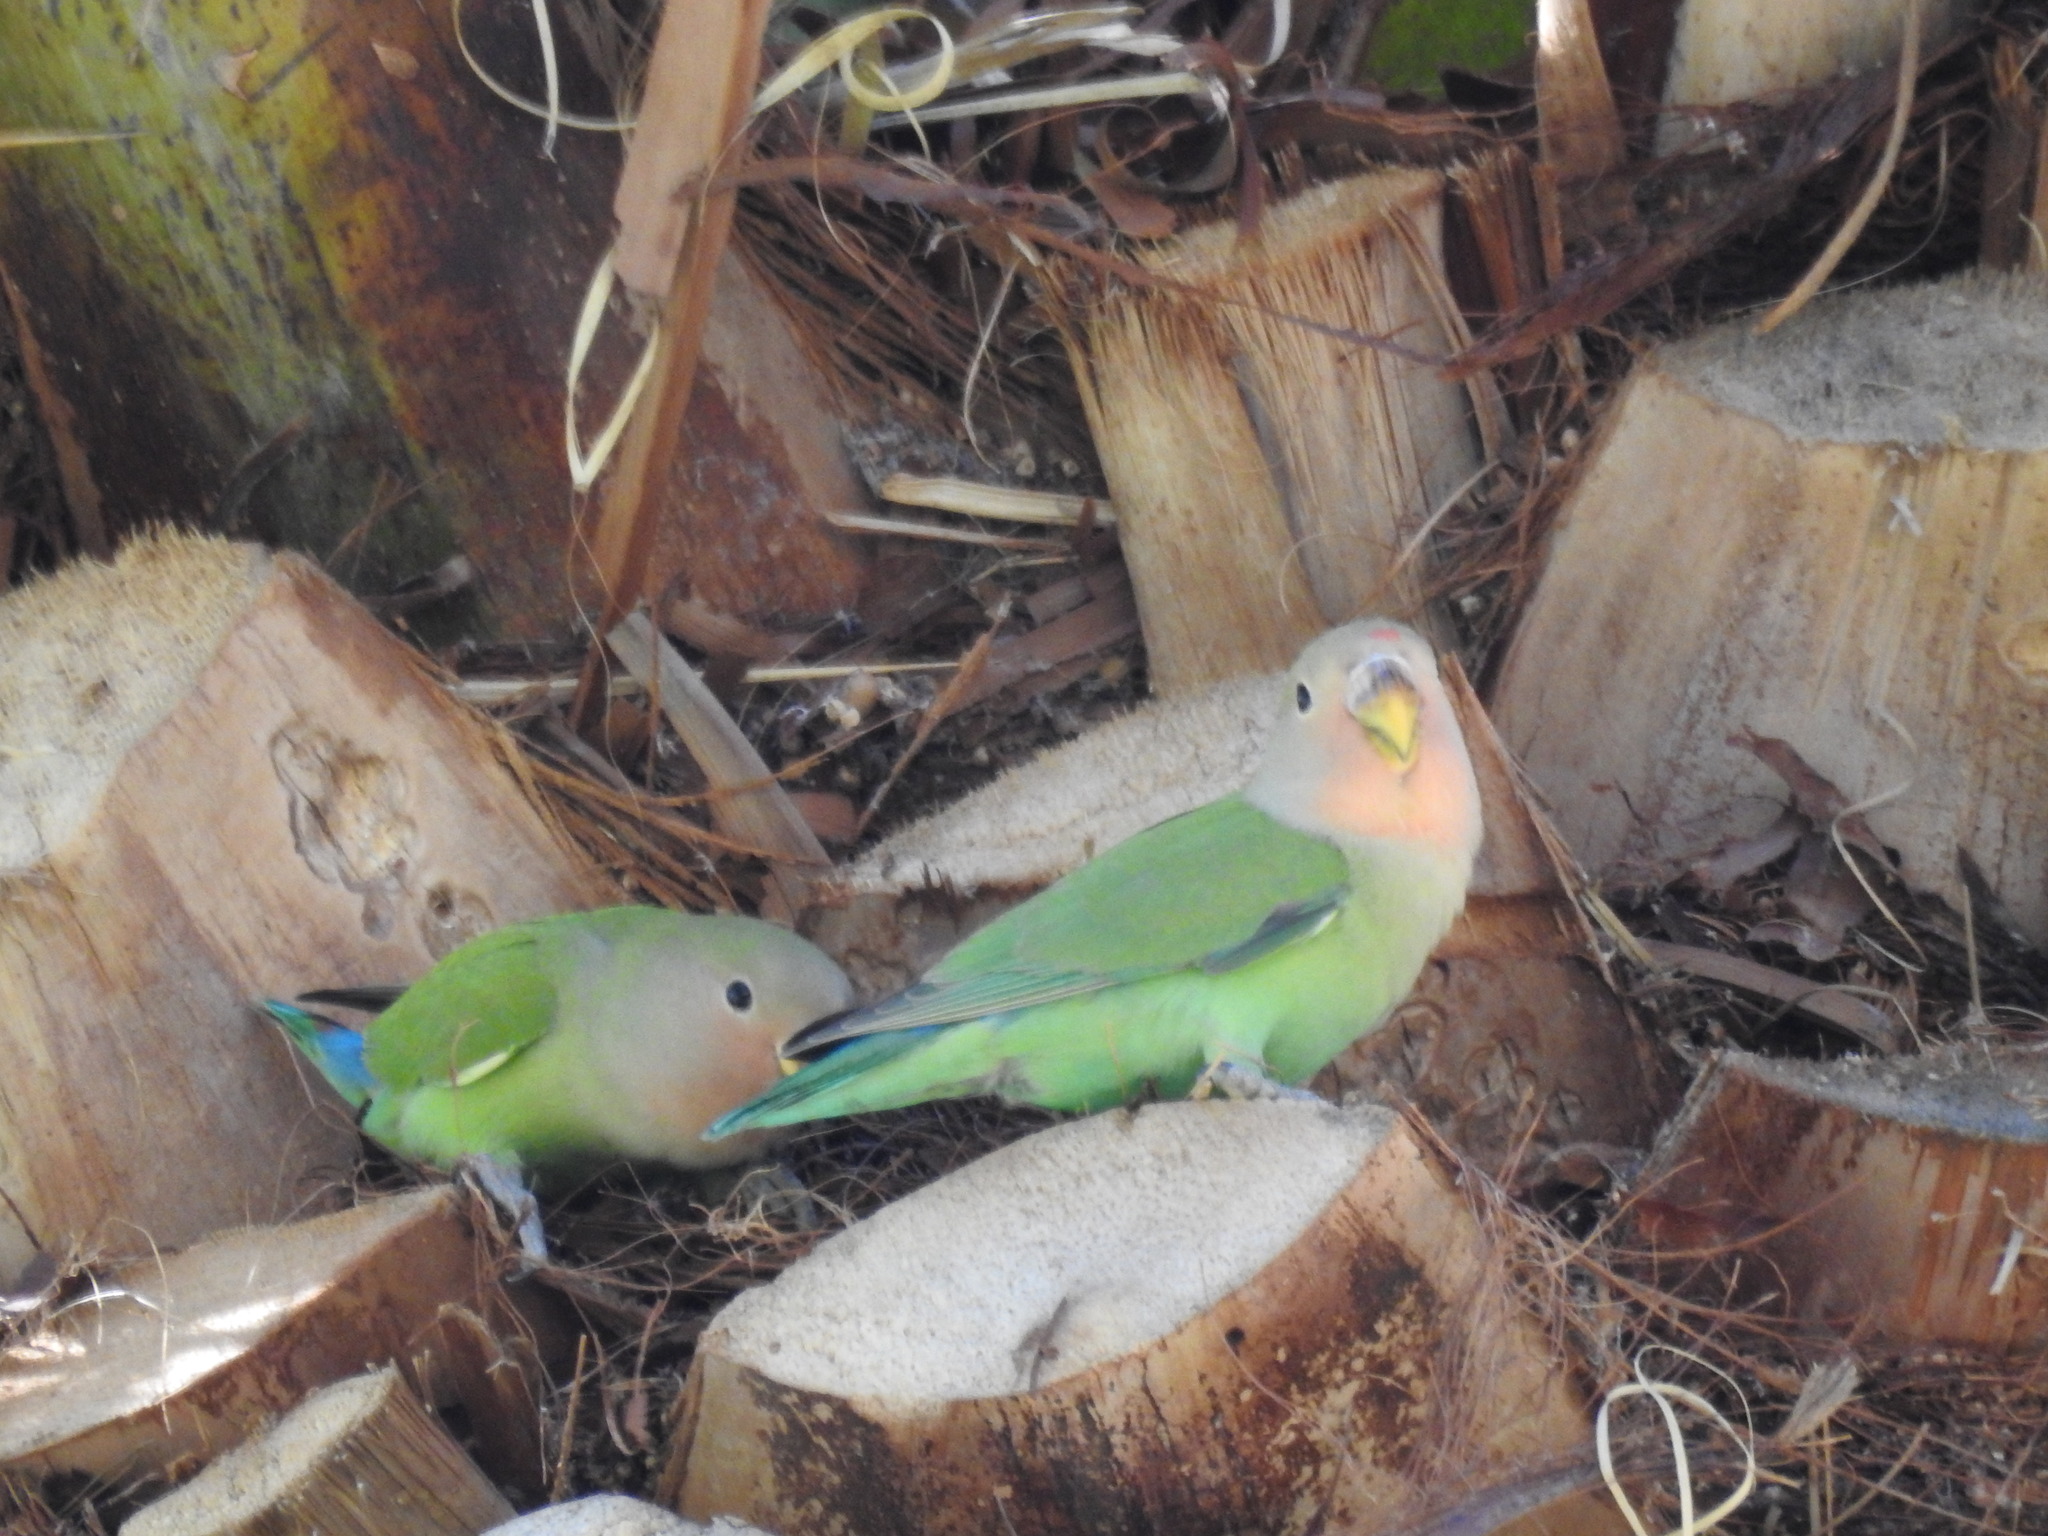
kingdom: Animalia
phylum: Chordata
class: Aves
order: Psittaciformes
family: Psittacidae
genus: Agapornis
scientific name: Agapornis roseicollis
